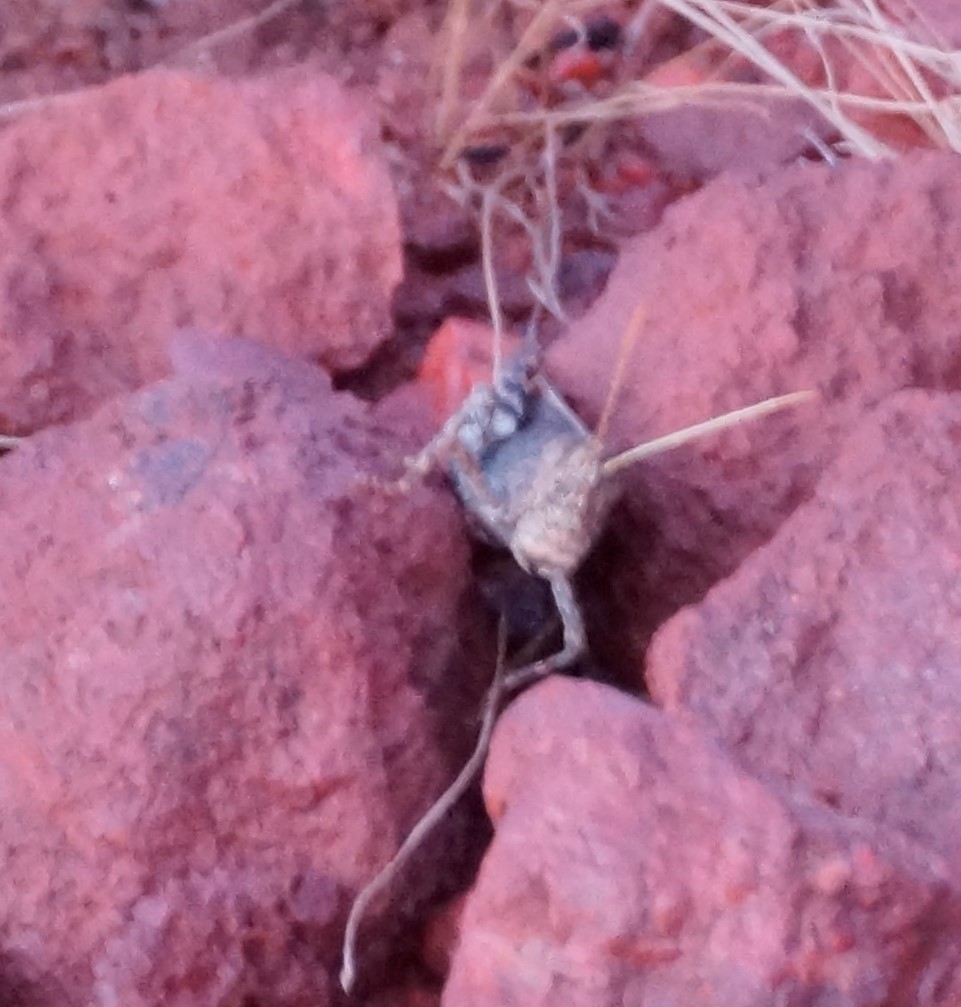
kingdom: Animalia
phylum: Arthropoda
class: Insecta
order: Orthoptera
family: Acrididae
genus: Desertaria
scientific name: Desertaria lepida
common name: Ungee-gungee
